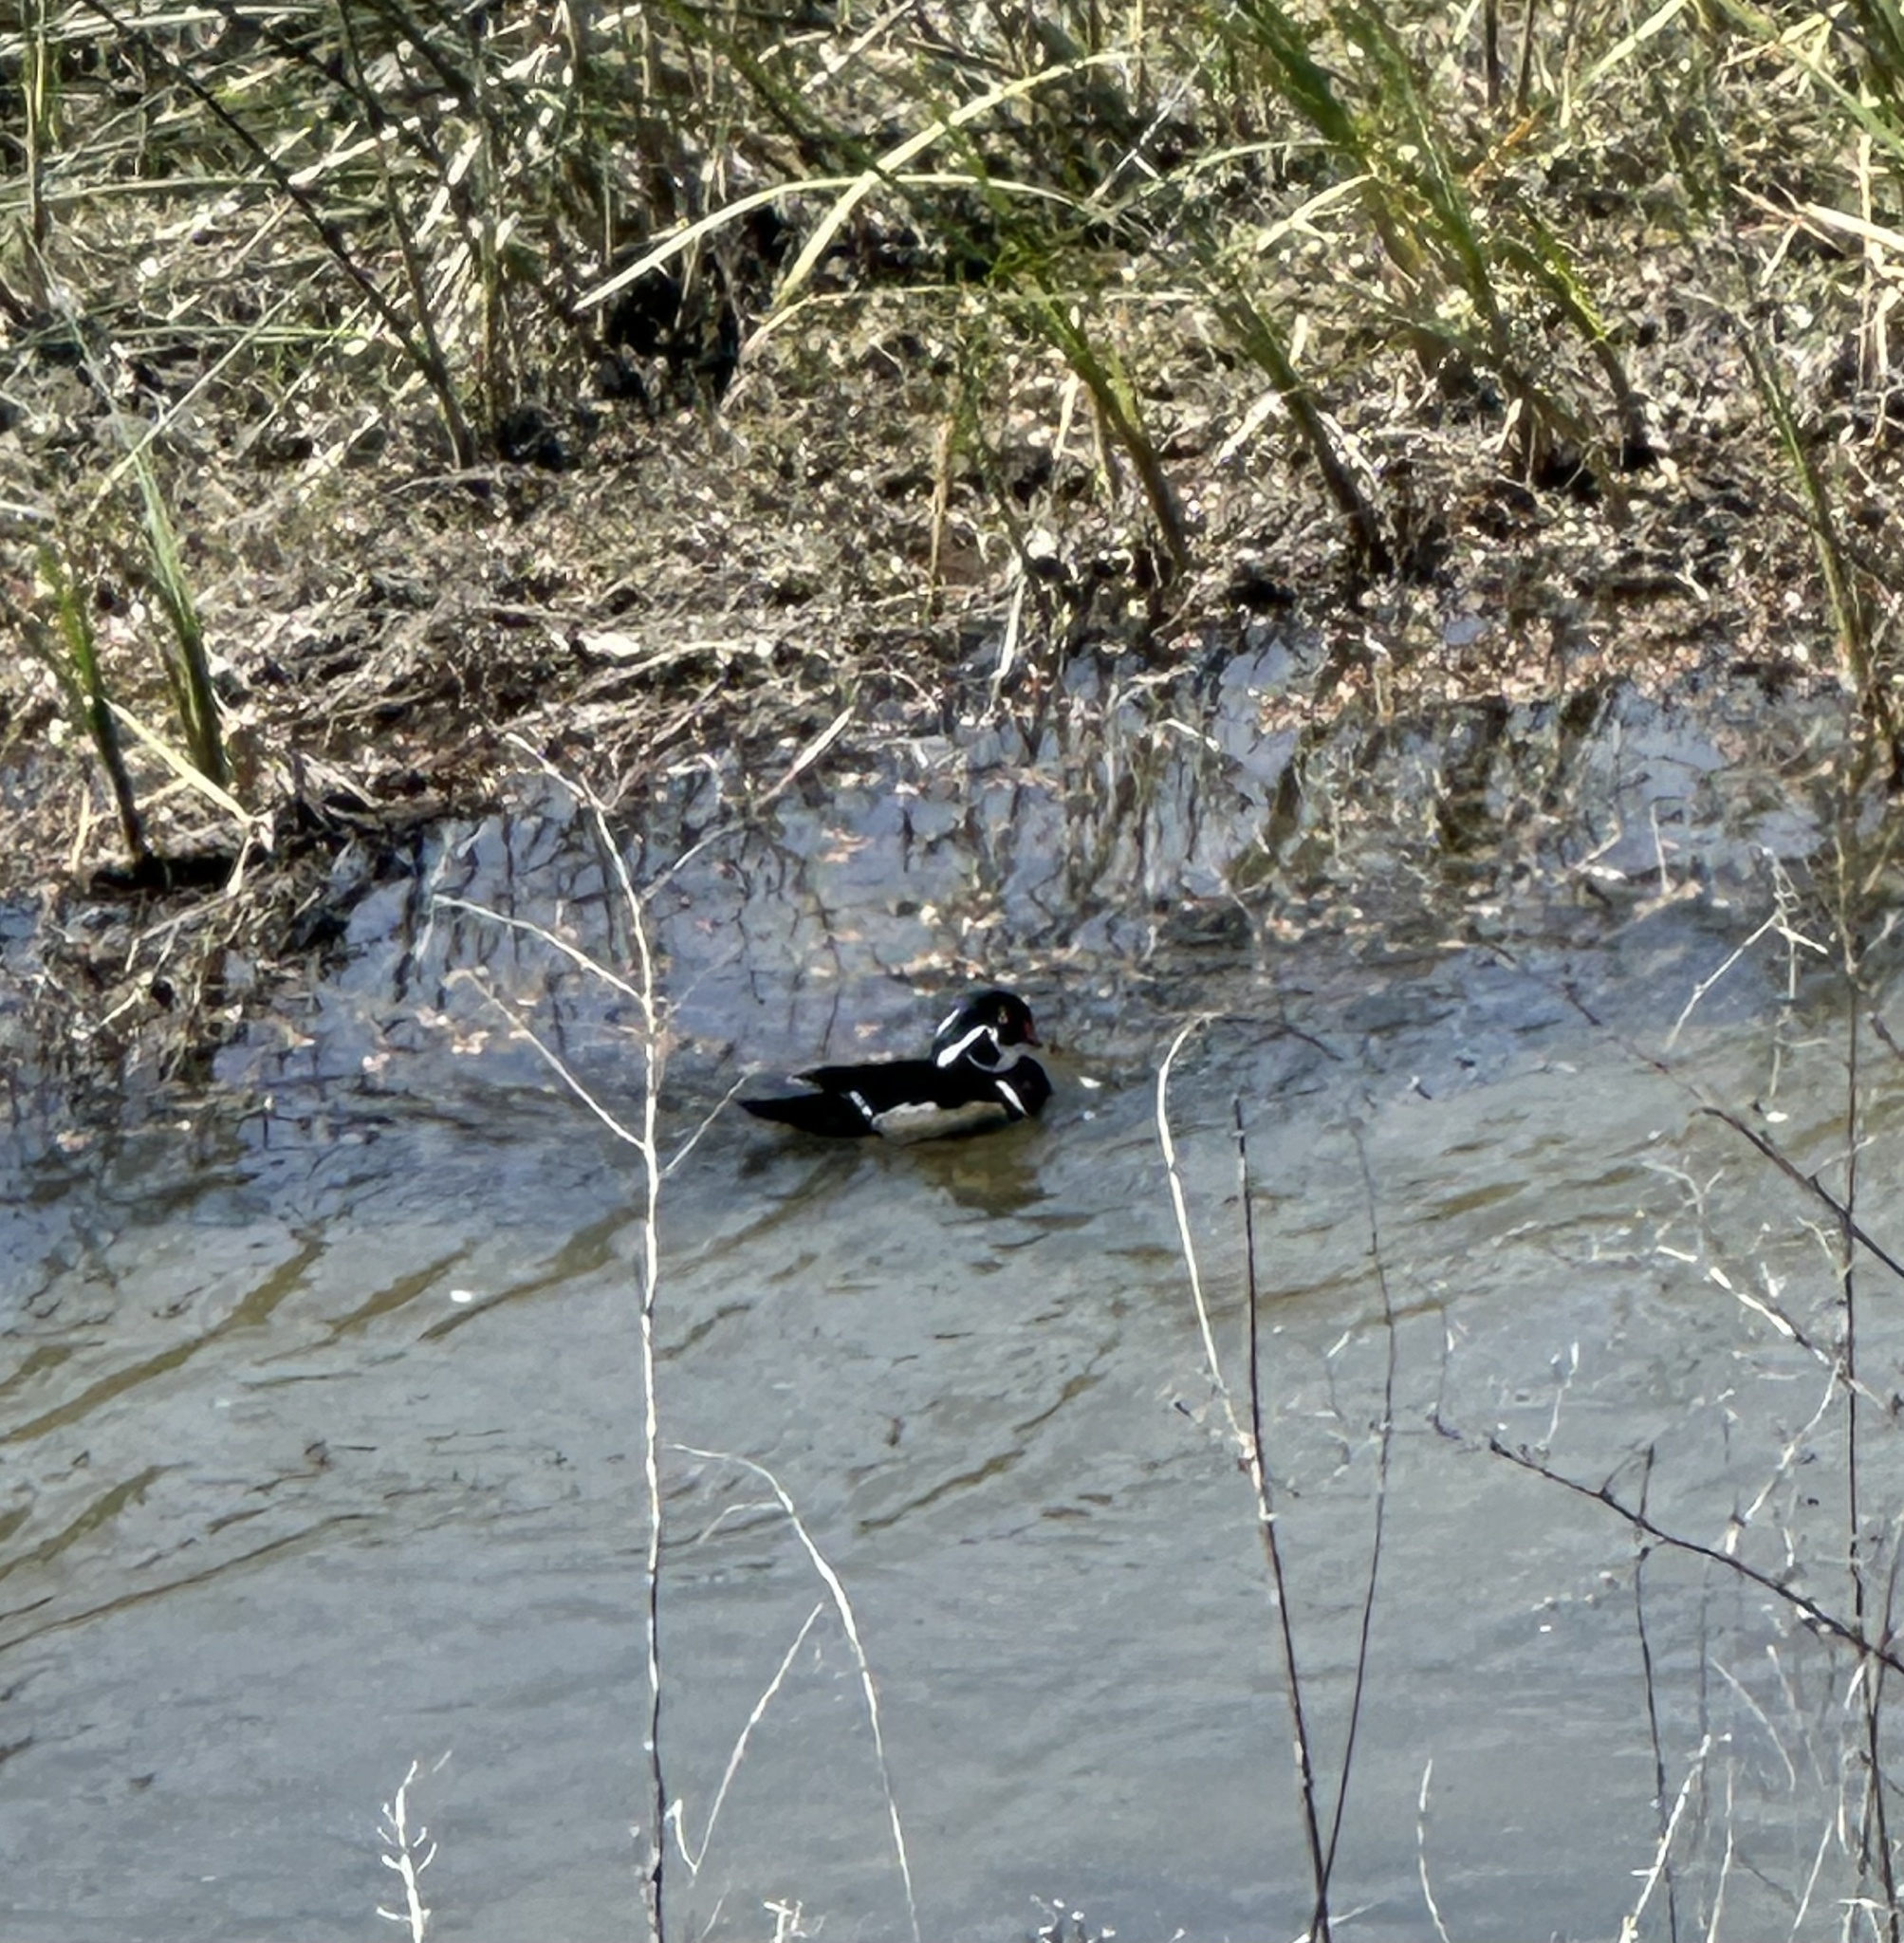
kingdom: Animalia
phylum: Chordata
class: Aves
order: Anseriformes
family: Anatidae
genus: Aix
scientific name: Aix sponsa
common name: Wood duck
